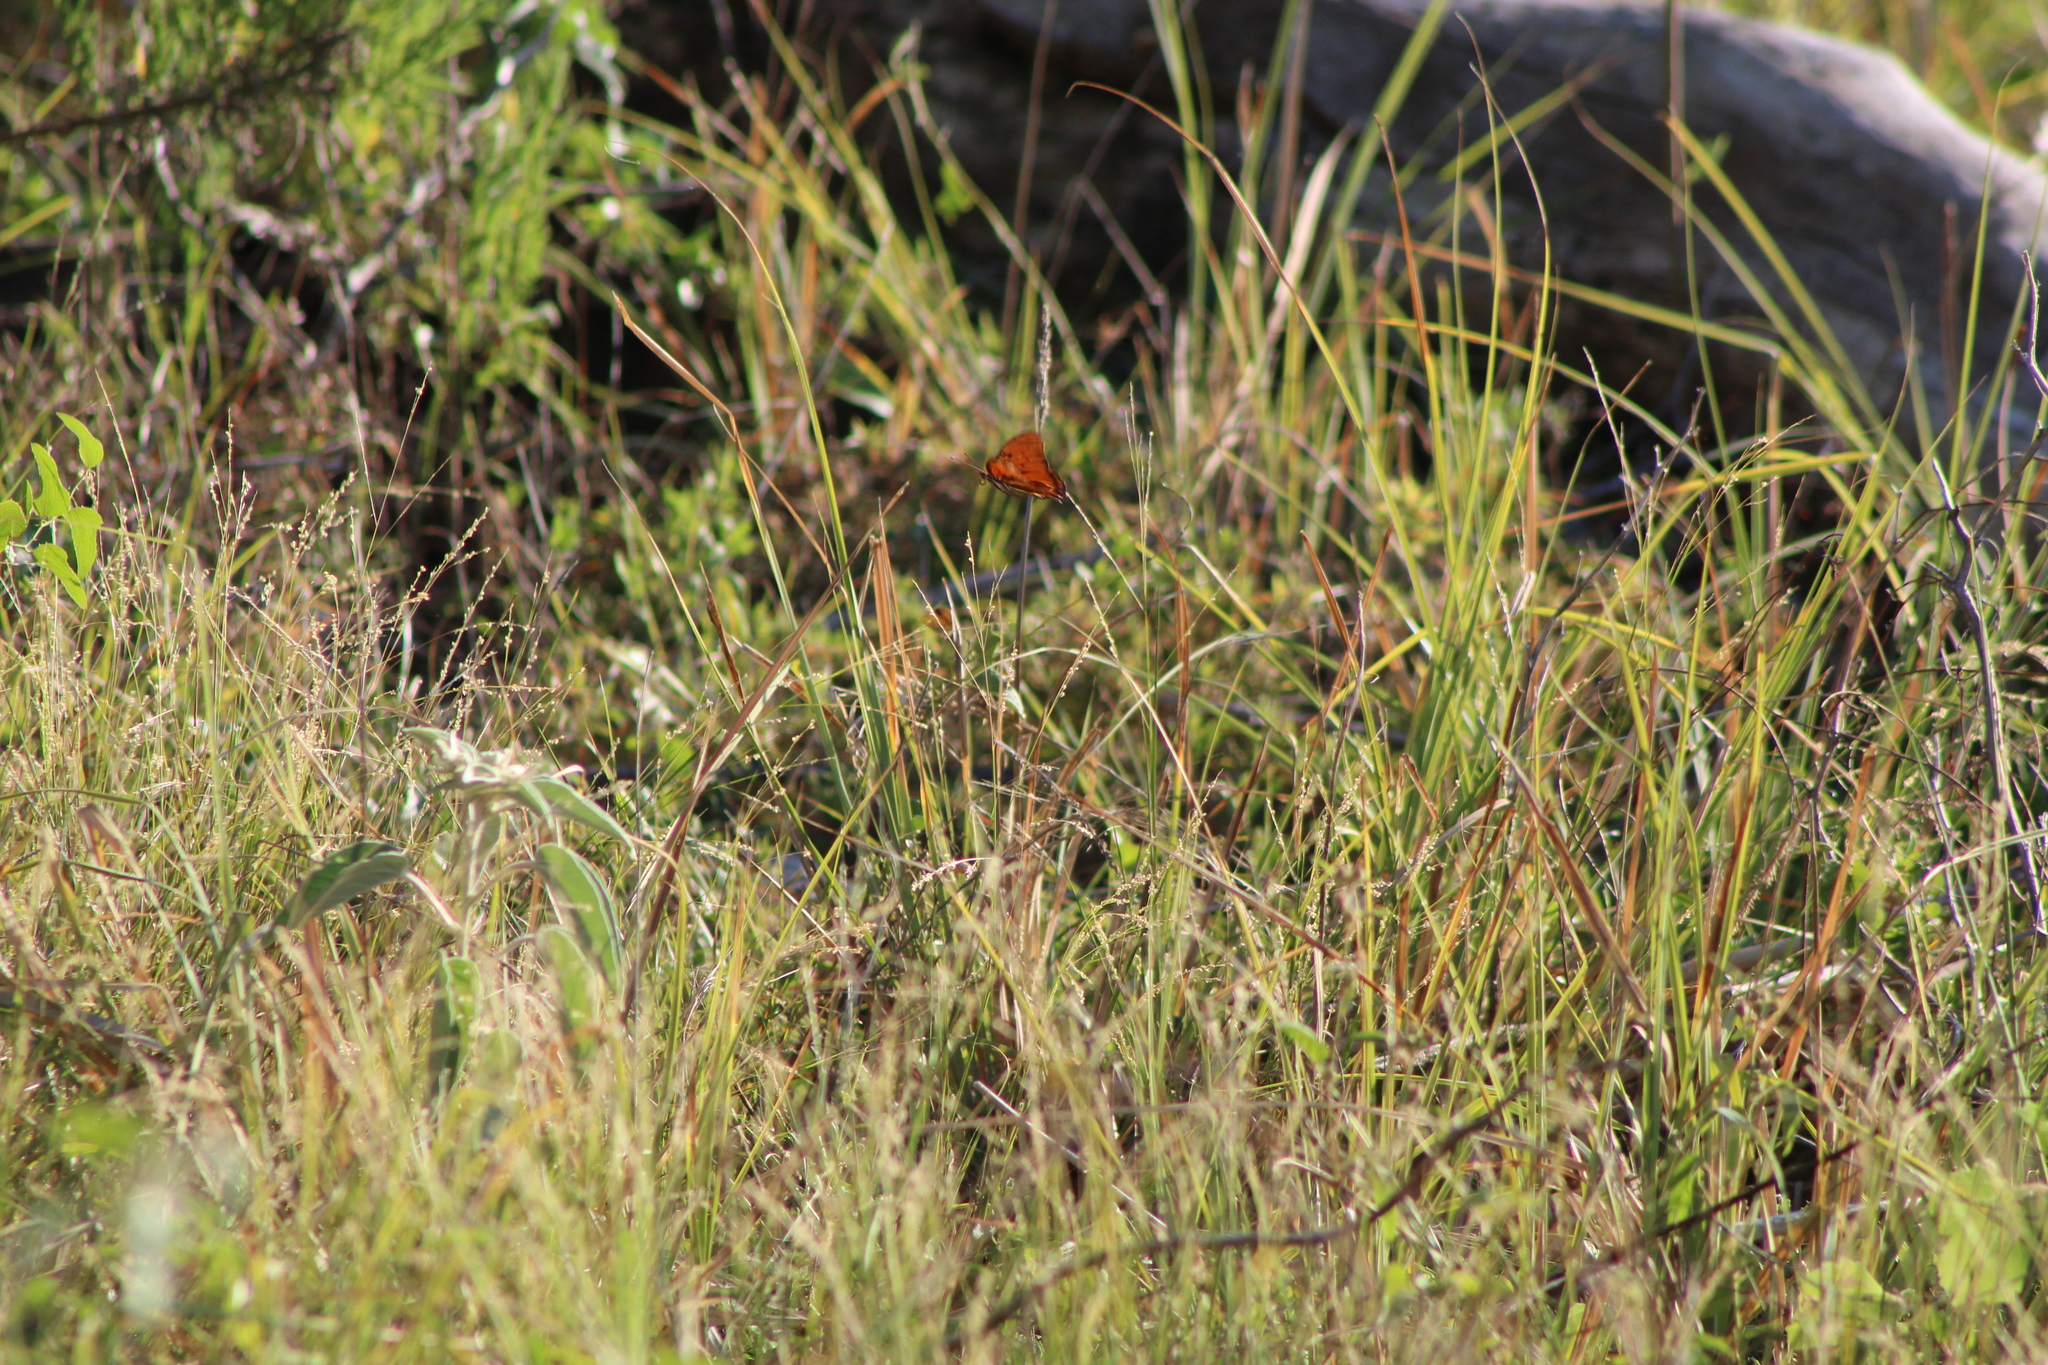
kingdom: Animalia
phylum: Arthropoda
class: Insecta
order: Lepidoptera
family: Nymphalidae
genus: Dione
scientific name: Dione vanillae
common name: Gulf fritillary
